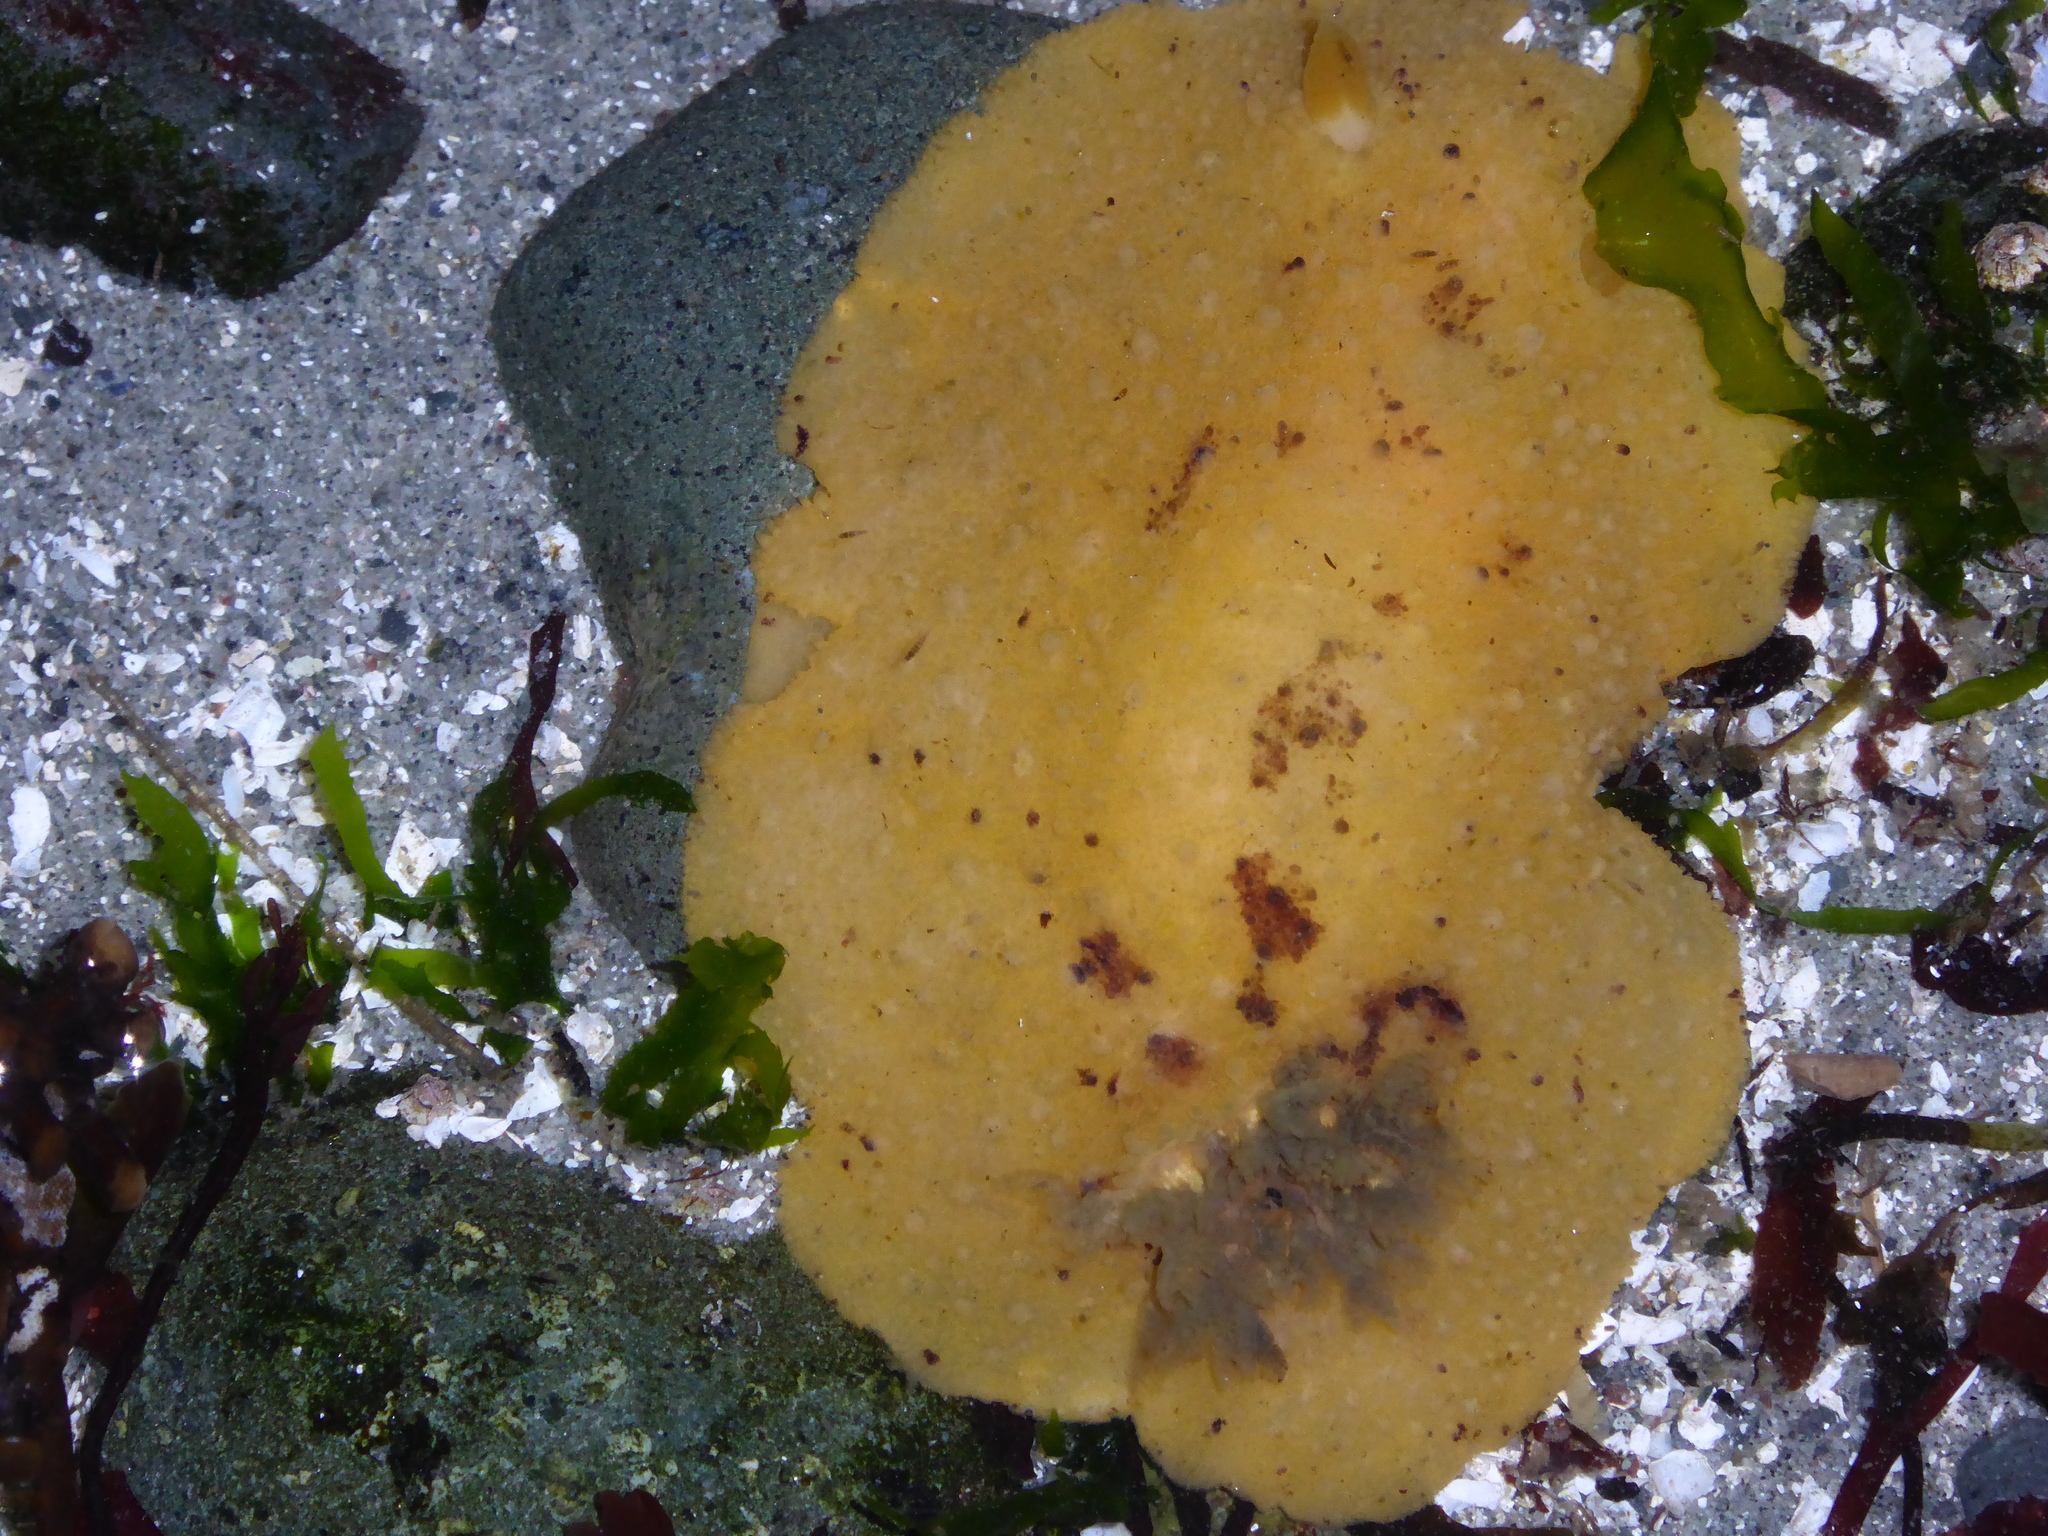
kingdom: Animalia
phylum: Mollusca
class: Gastropoda
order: Nudibranchia
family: Dorididae
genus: Doris
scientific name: Doris montereyensis
